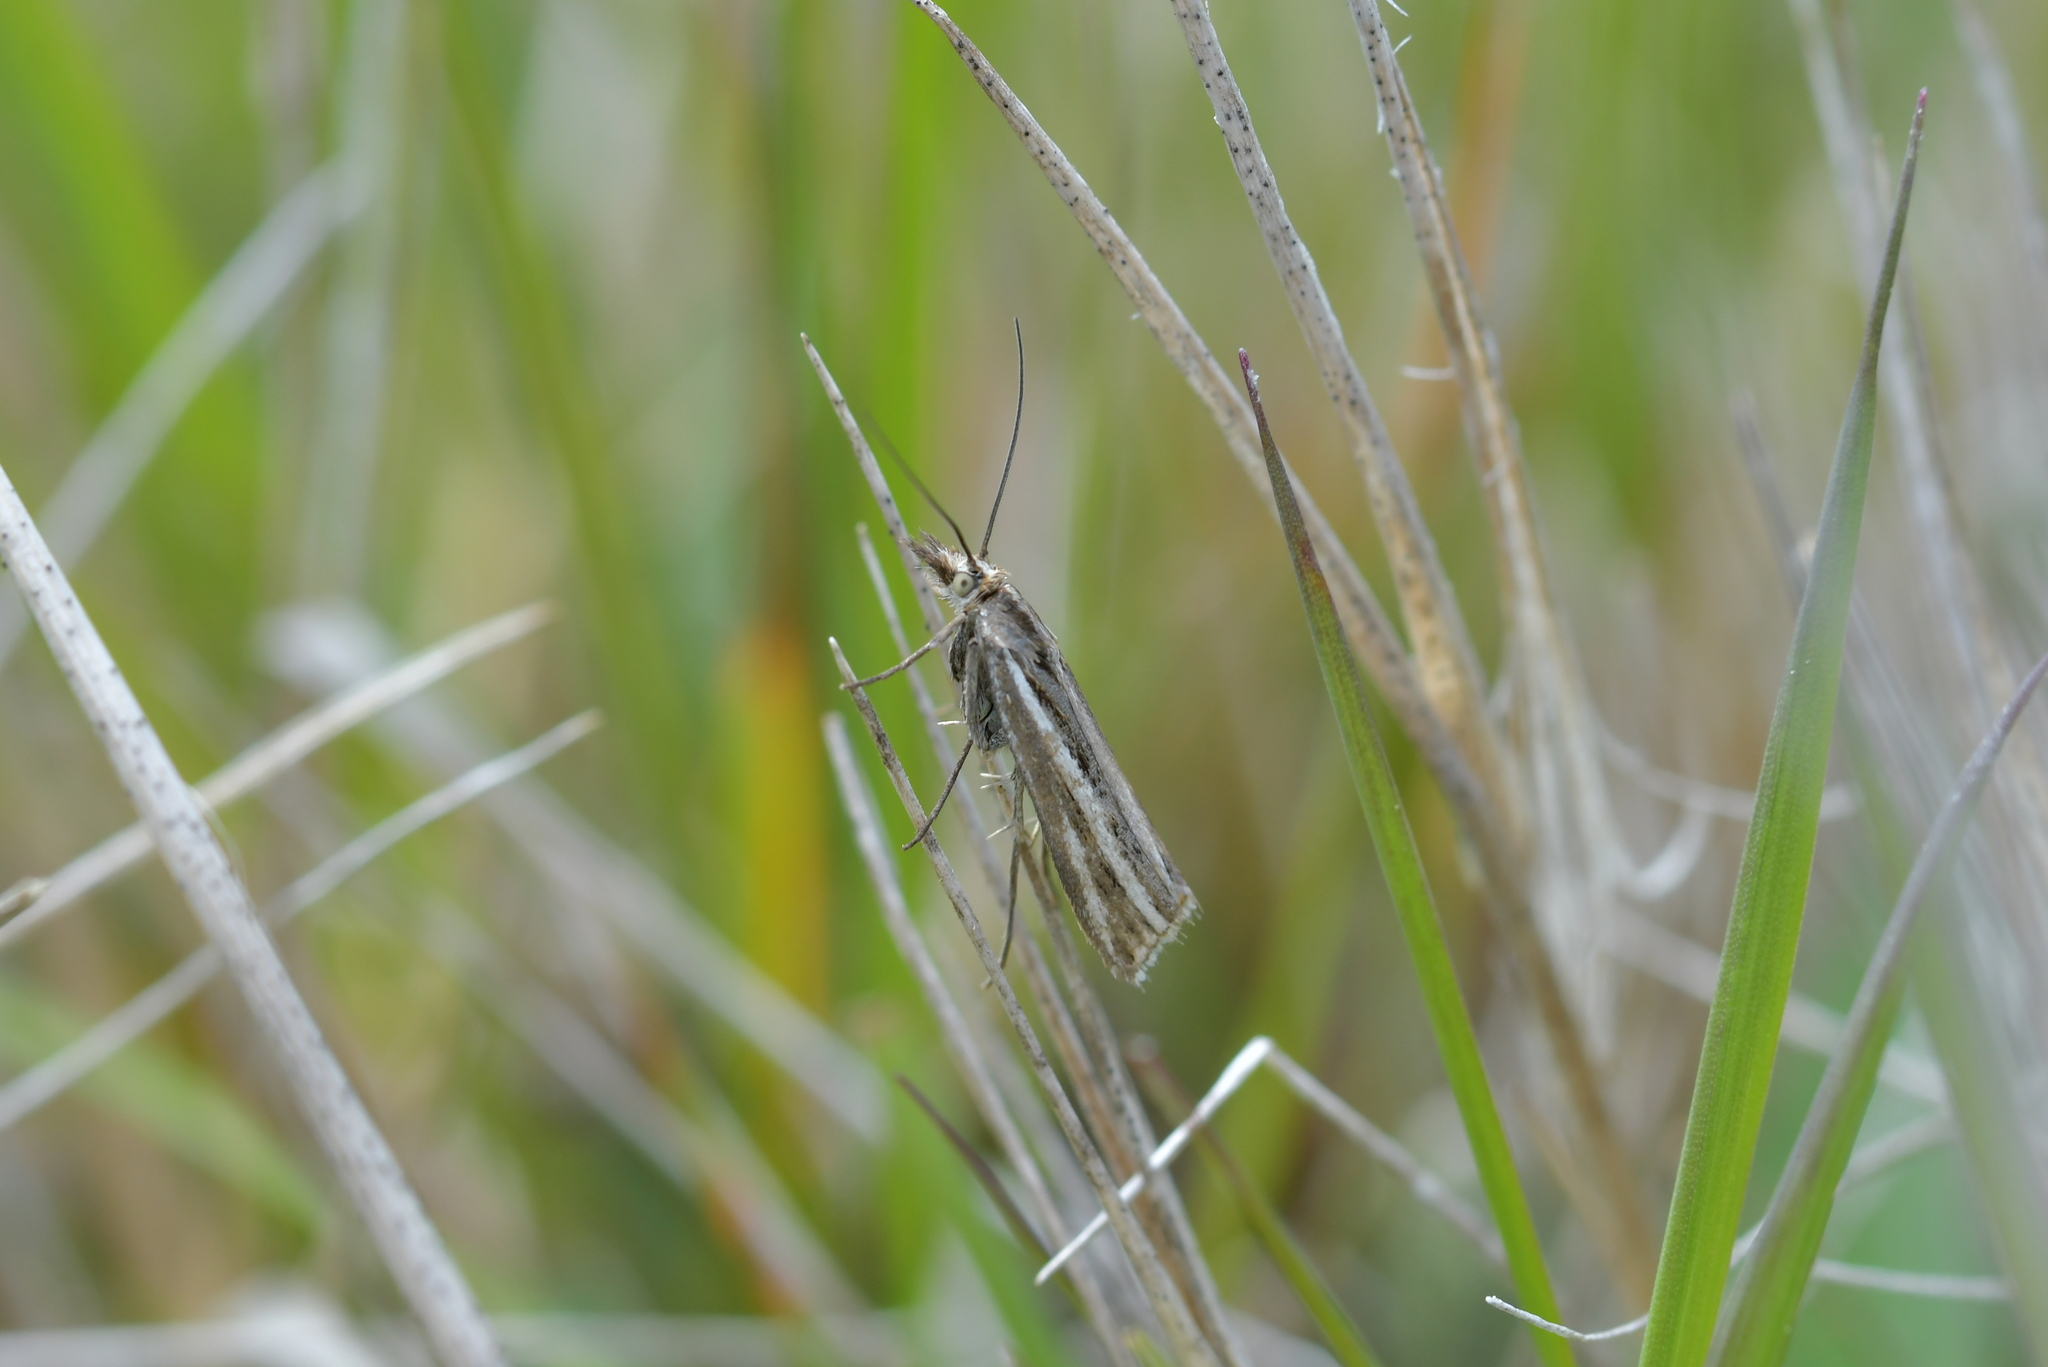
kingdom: Animalia
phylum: Arthropoda
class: Insecta
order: Lepidoptera
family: Crambidae
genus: Orocrambus
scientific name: Orocrambus corruptus
